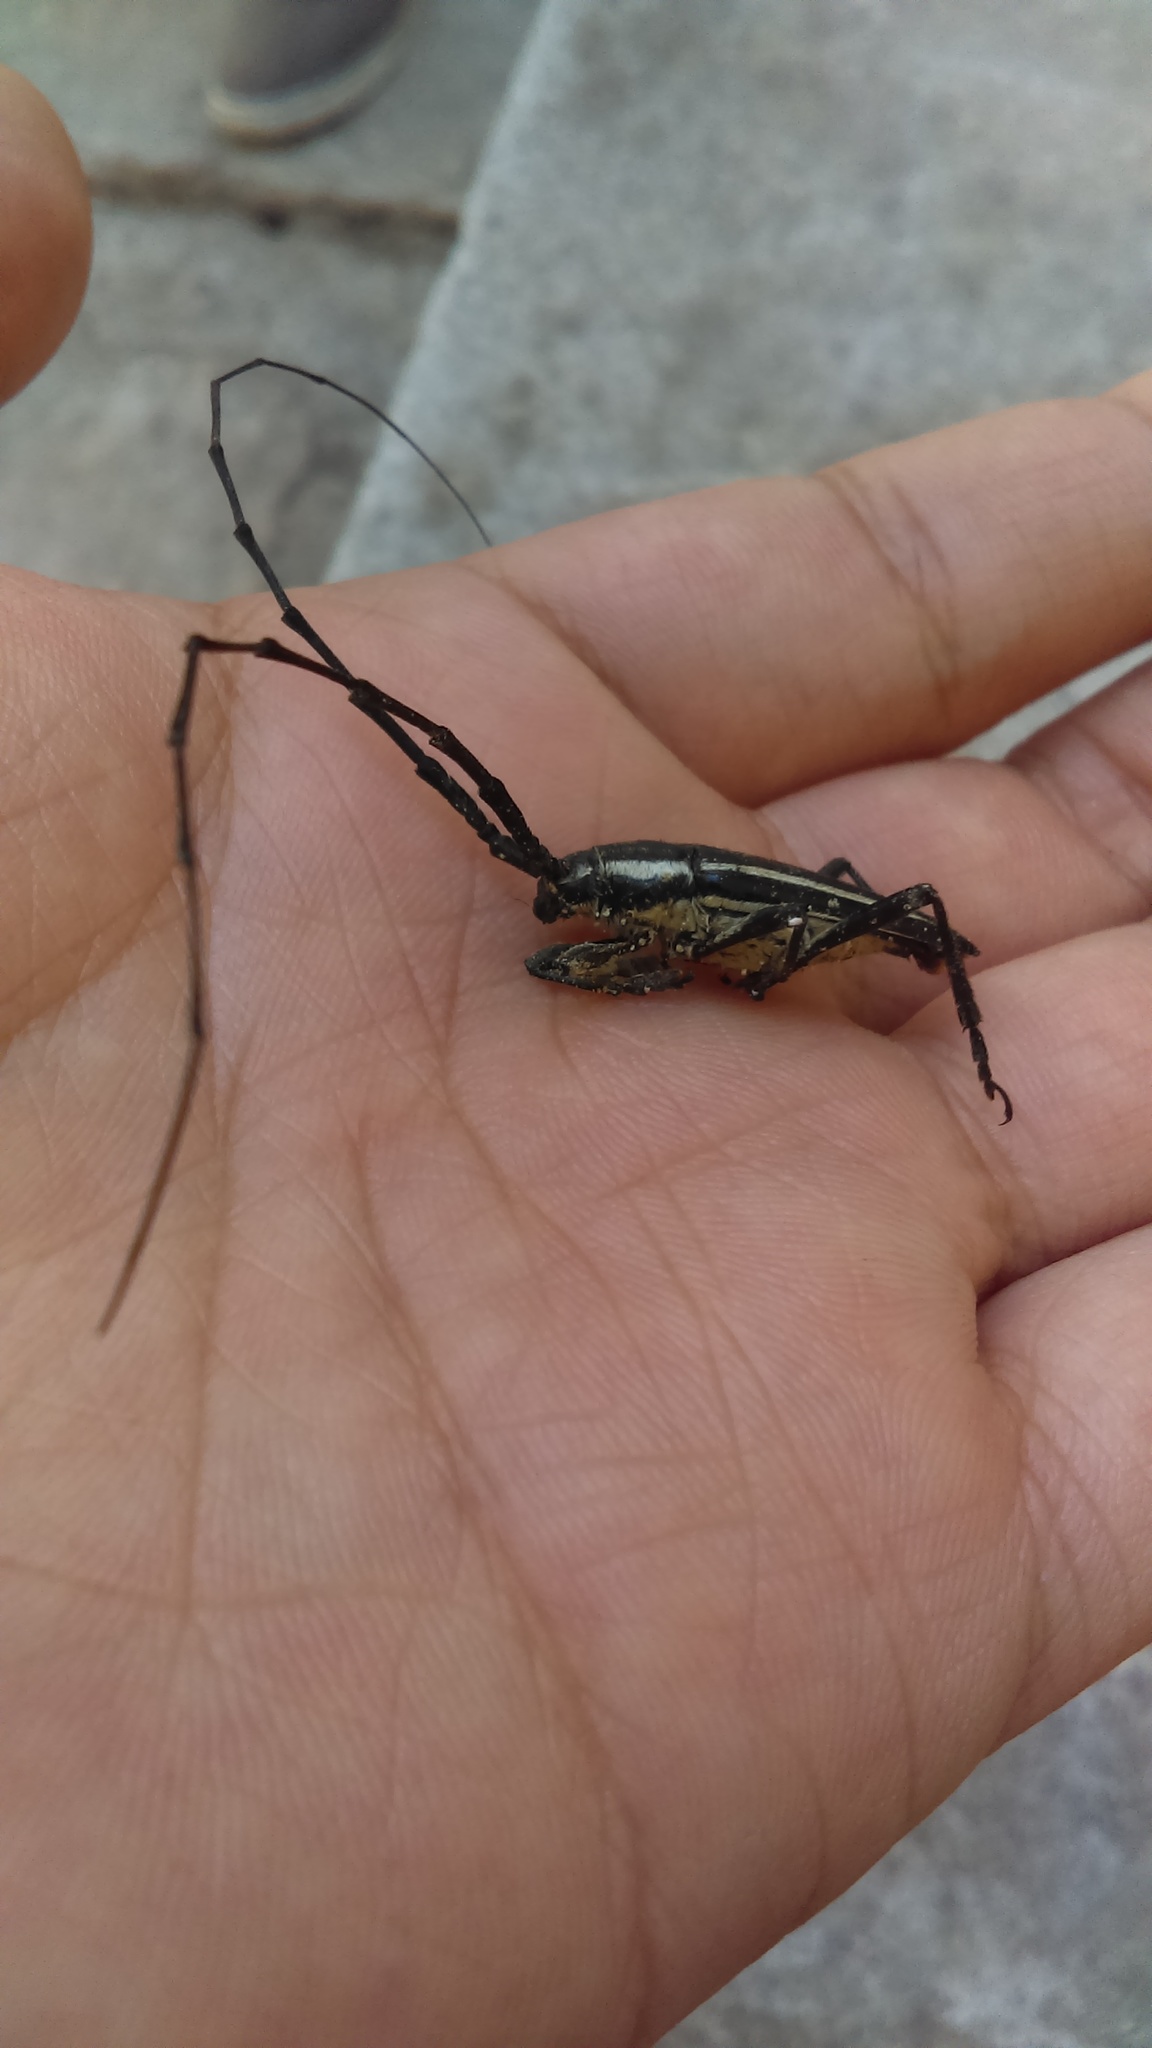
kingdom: Animalia
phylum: Arthropoda
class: Insecta
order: Coleoptera
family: Cerambycidae
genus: Sphaenothecus
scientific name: Sphaenothecus trilineatus
